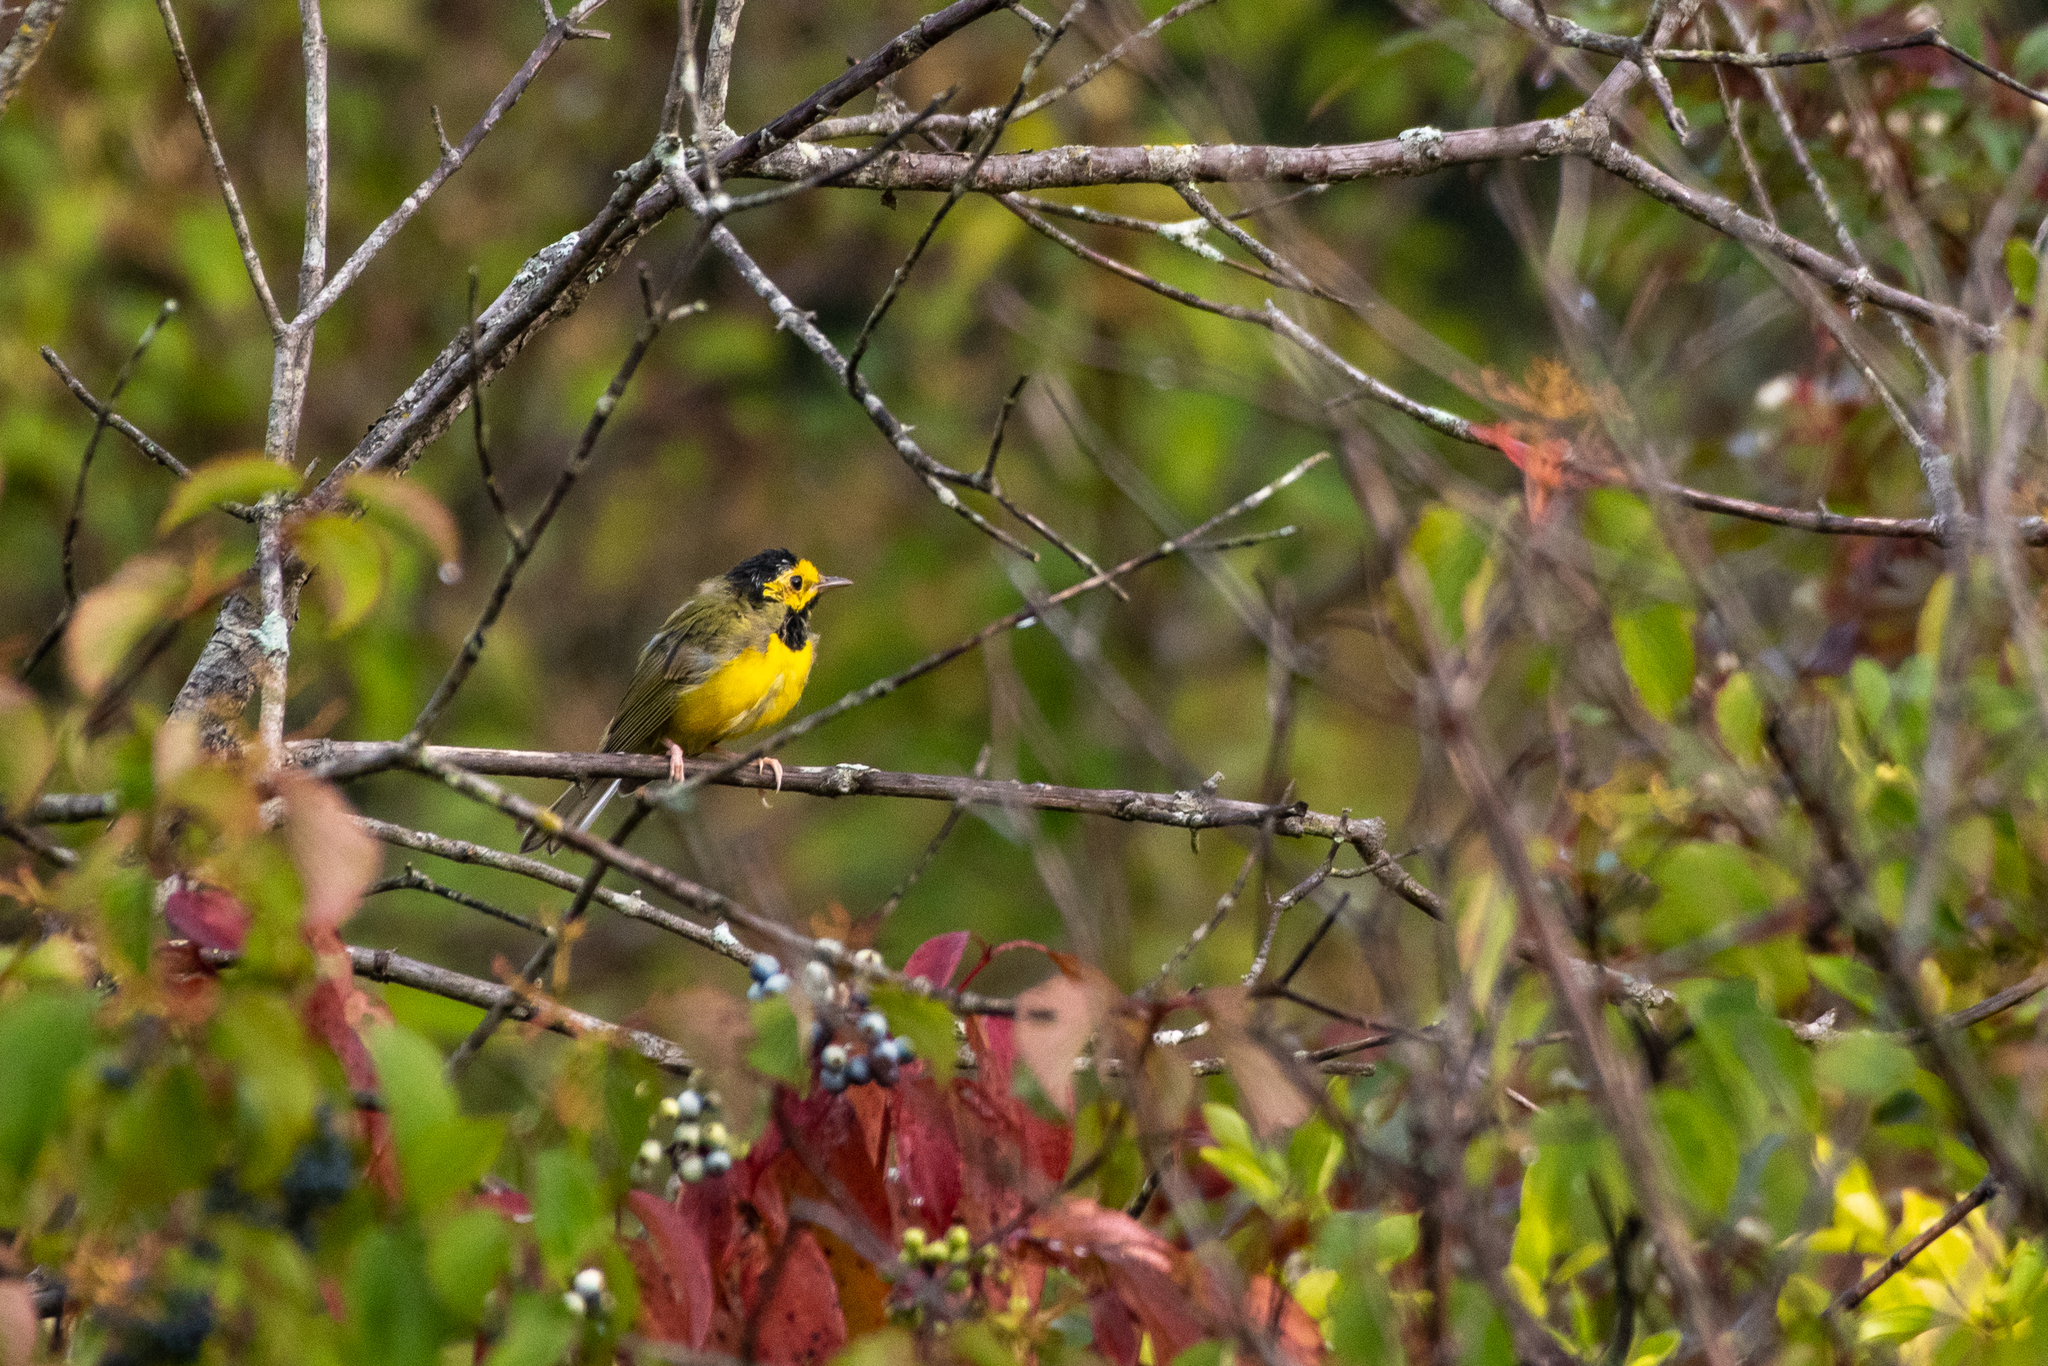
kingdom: Animalia
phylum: Chordata
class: Aves
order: Passeriformes
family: Parulidae
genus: Setophaga
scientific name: Setophaga citrina
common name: Hooded warbler
